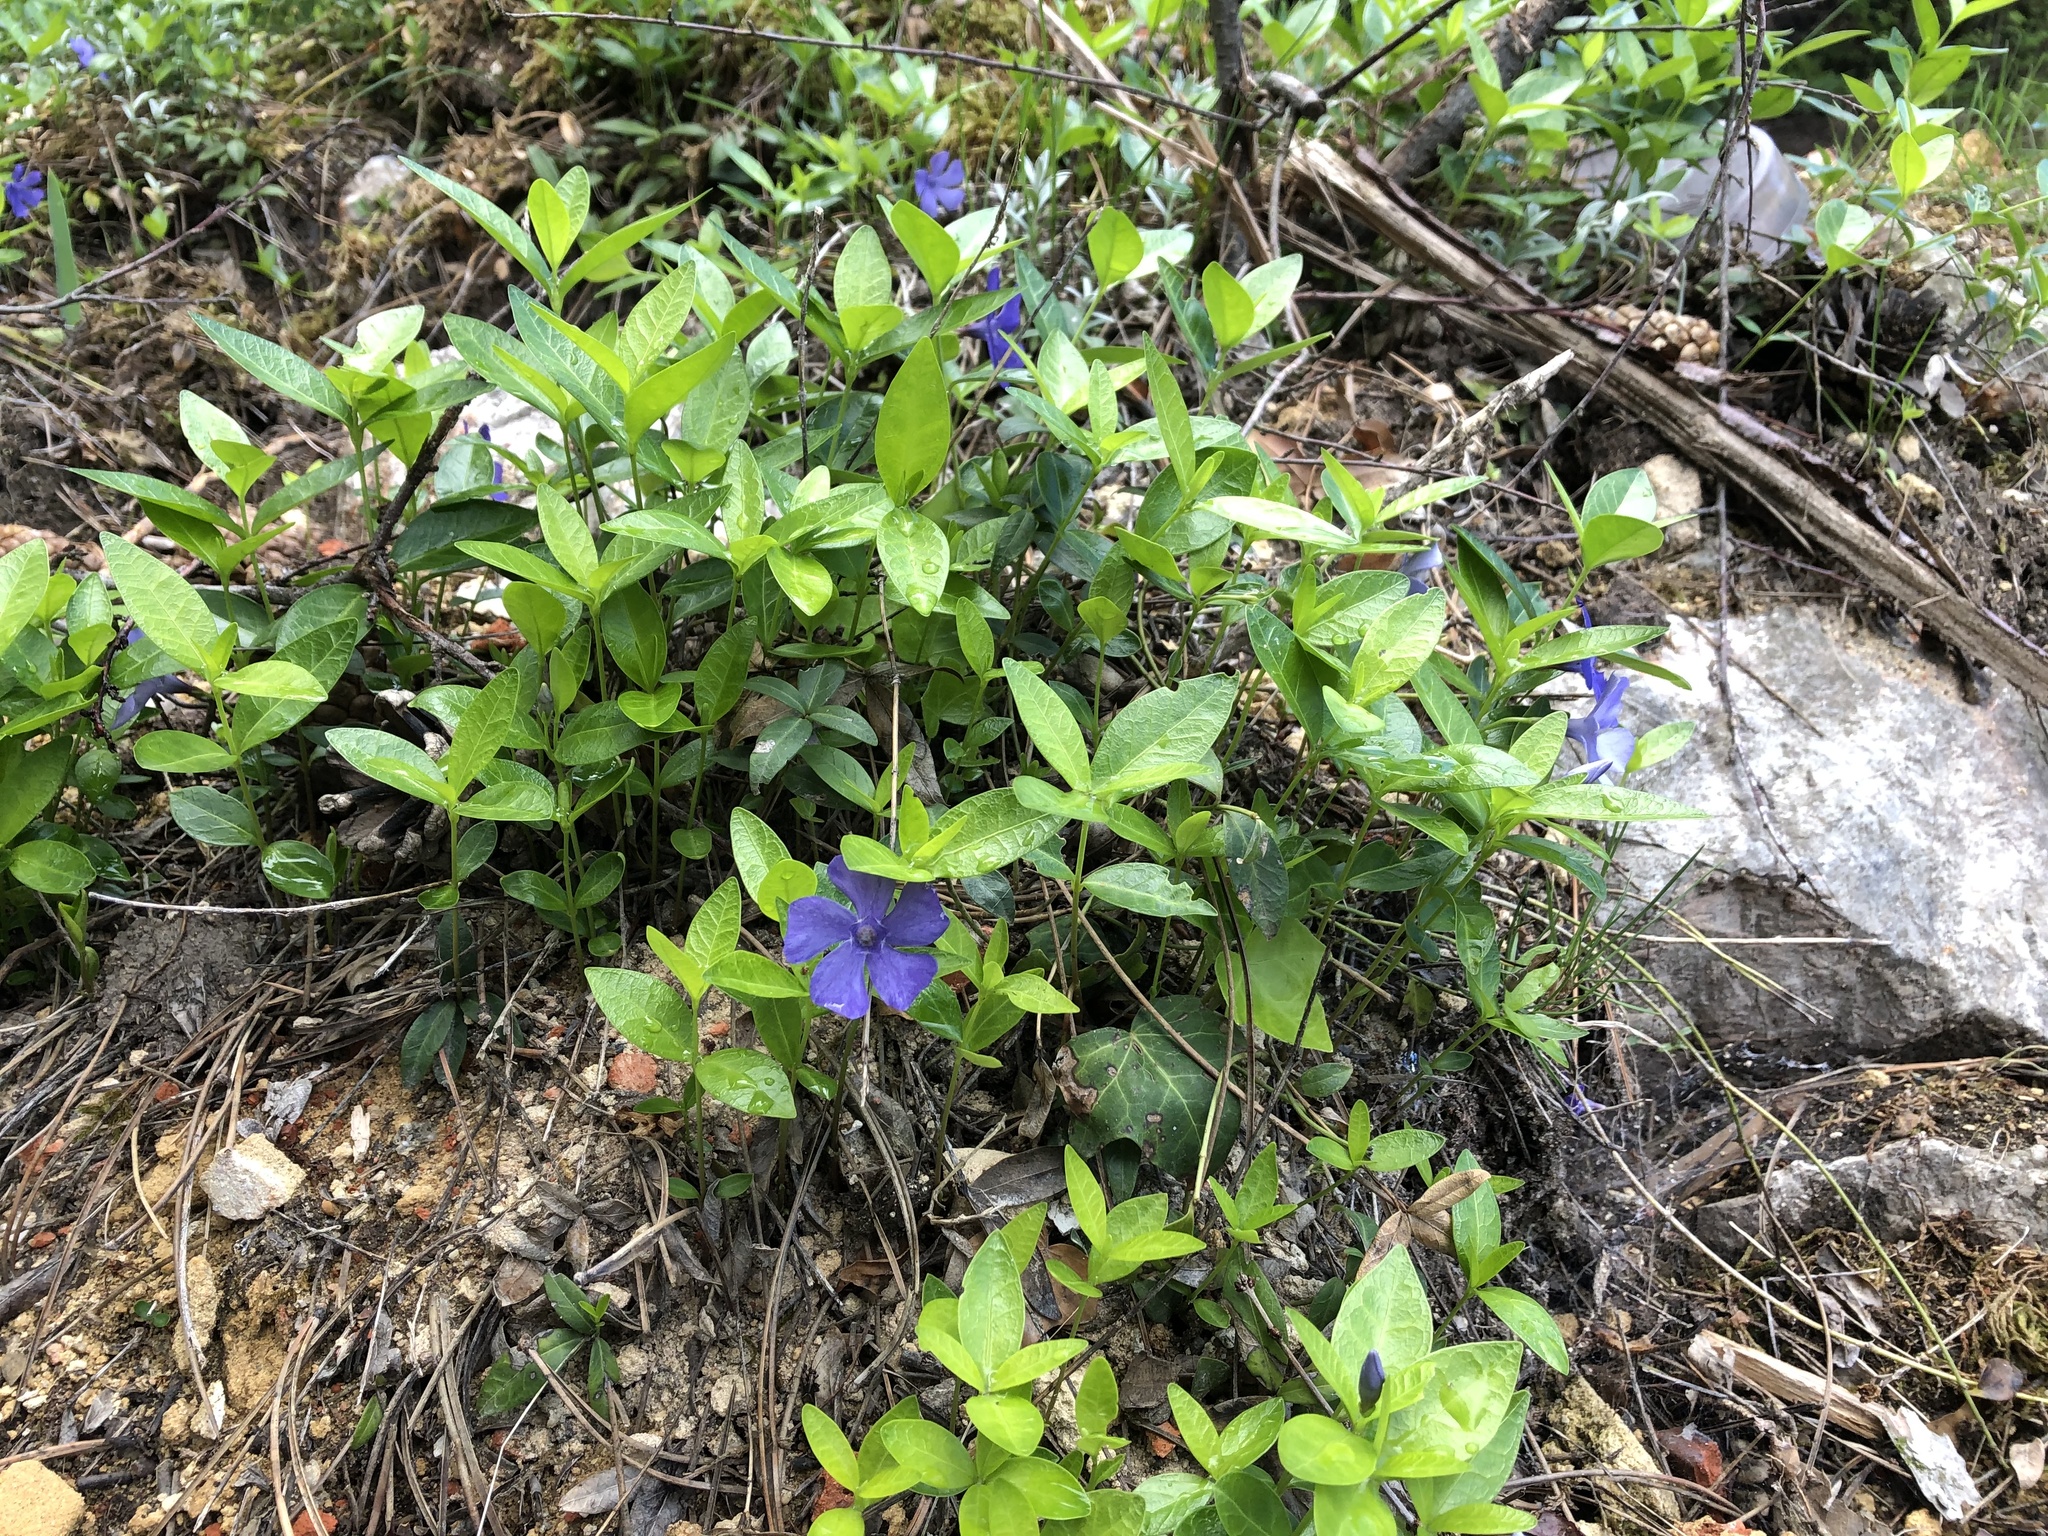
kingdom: Plantae
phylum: Tracheophyta
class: Magnoliopsida
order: Gentianales
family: Apocynaceae
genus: Vinca
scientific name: Vinca minor
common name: Lesser periwinkle
